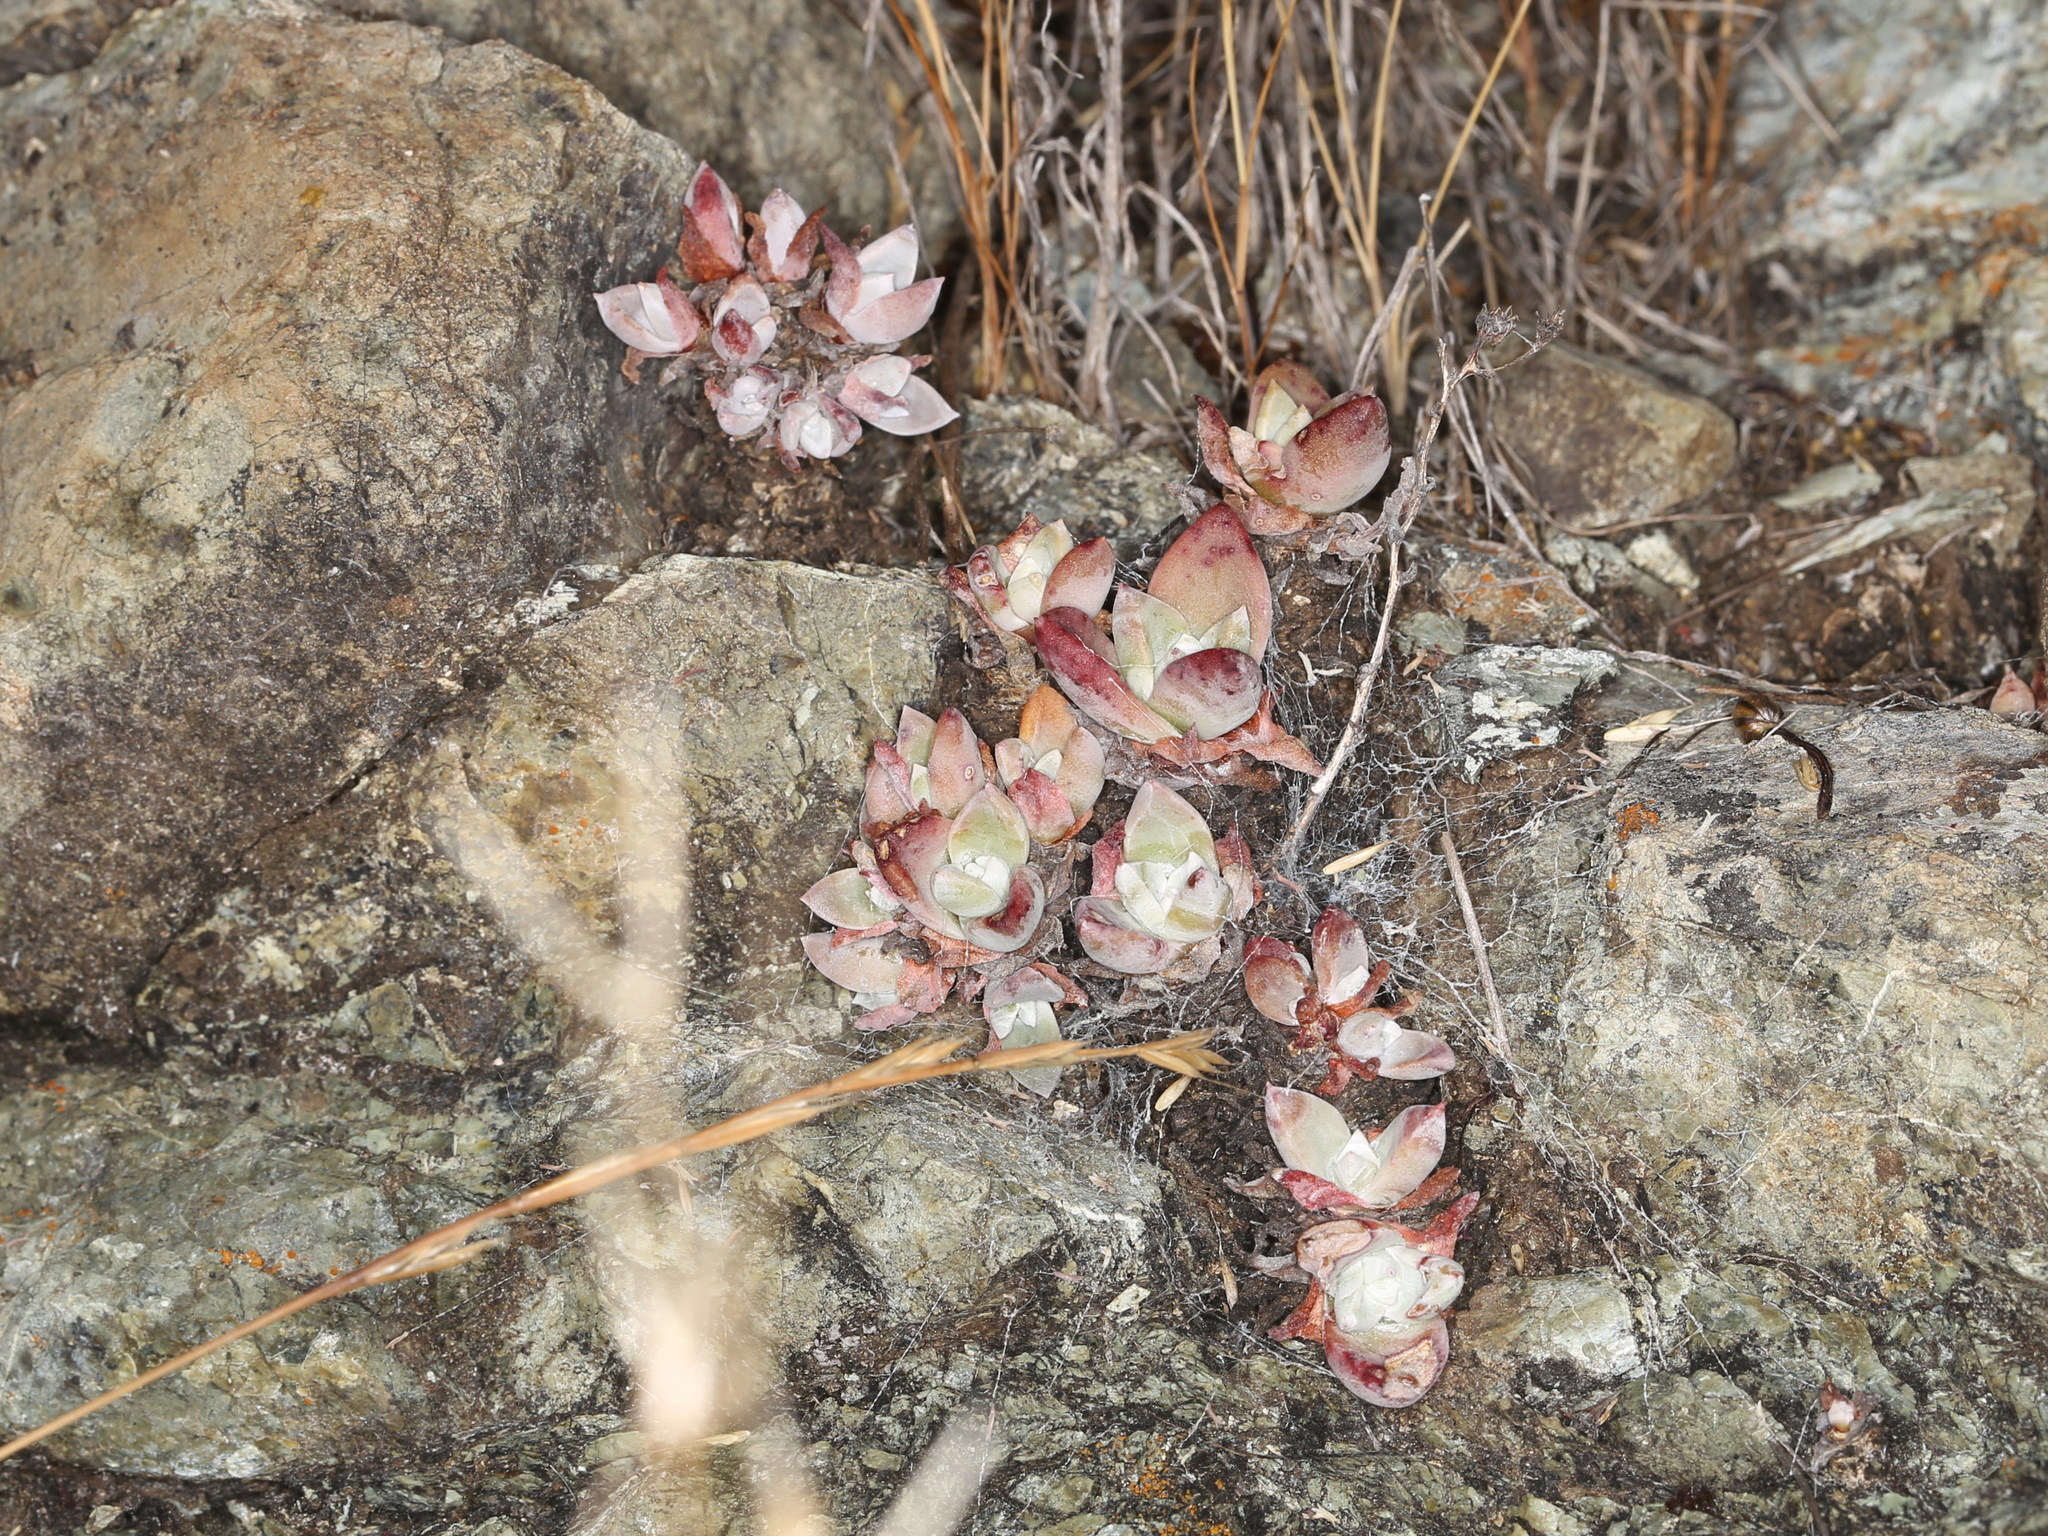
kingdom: Plantae
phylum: Tracheophyta
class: Magnoliopsida
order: Saxifragales
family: Crassulaceae
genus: Dudleya
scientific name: Dudleya farinosa
